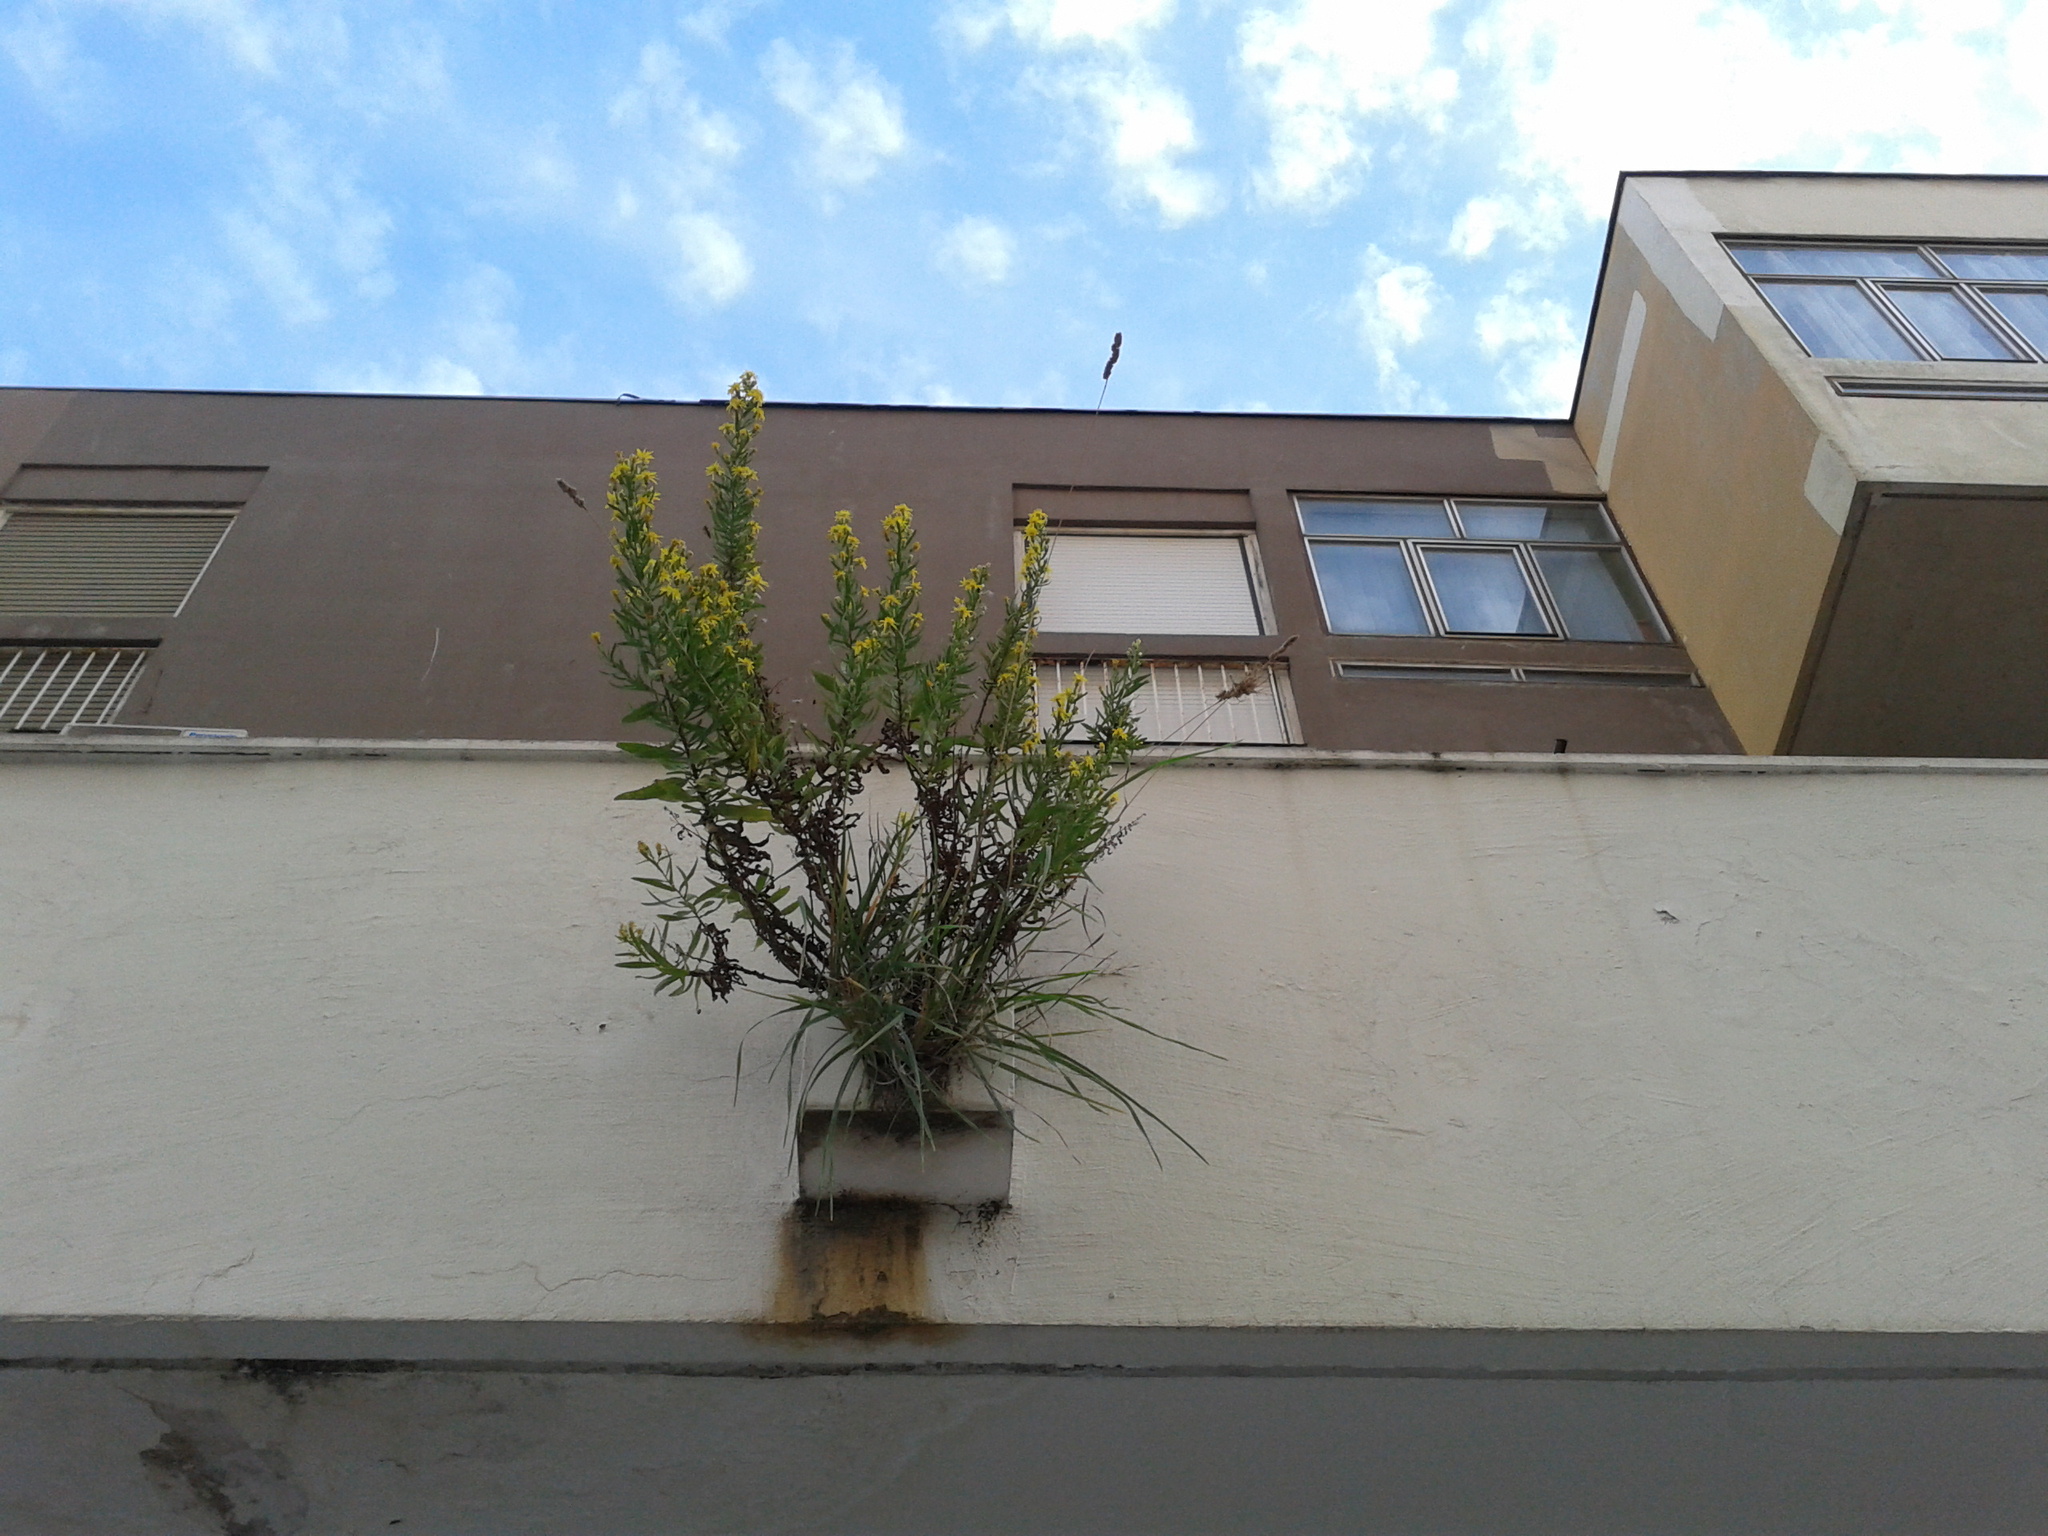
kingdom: Plantae
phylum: Tracheophyta
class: Magnoliopsida
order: Asterales
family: Asteraceae
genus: Dittrichia
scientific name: Dittrichia viscosa
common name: Woody fleabane
